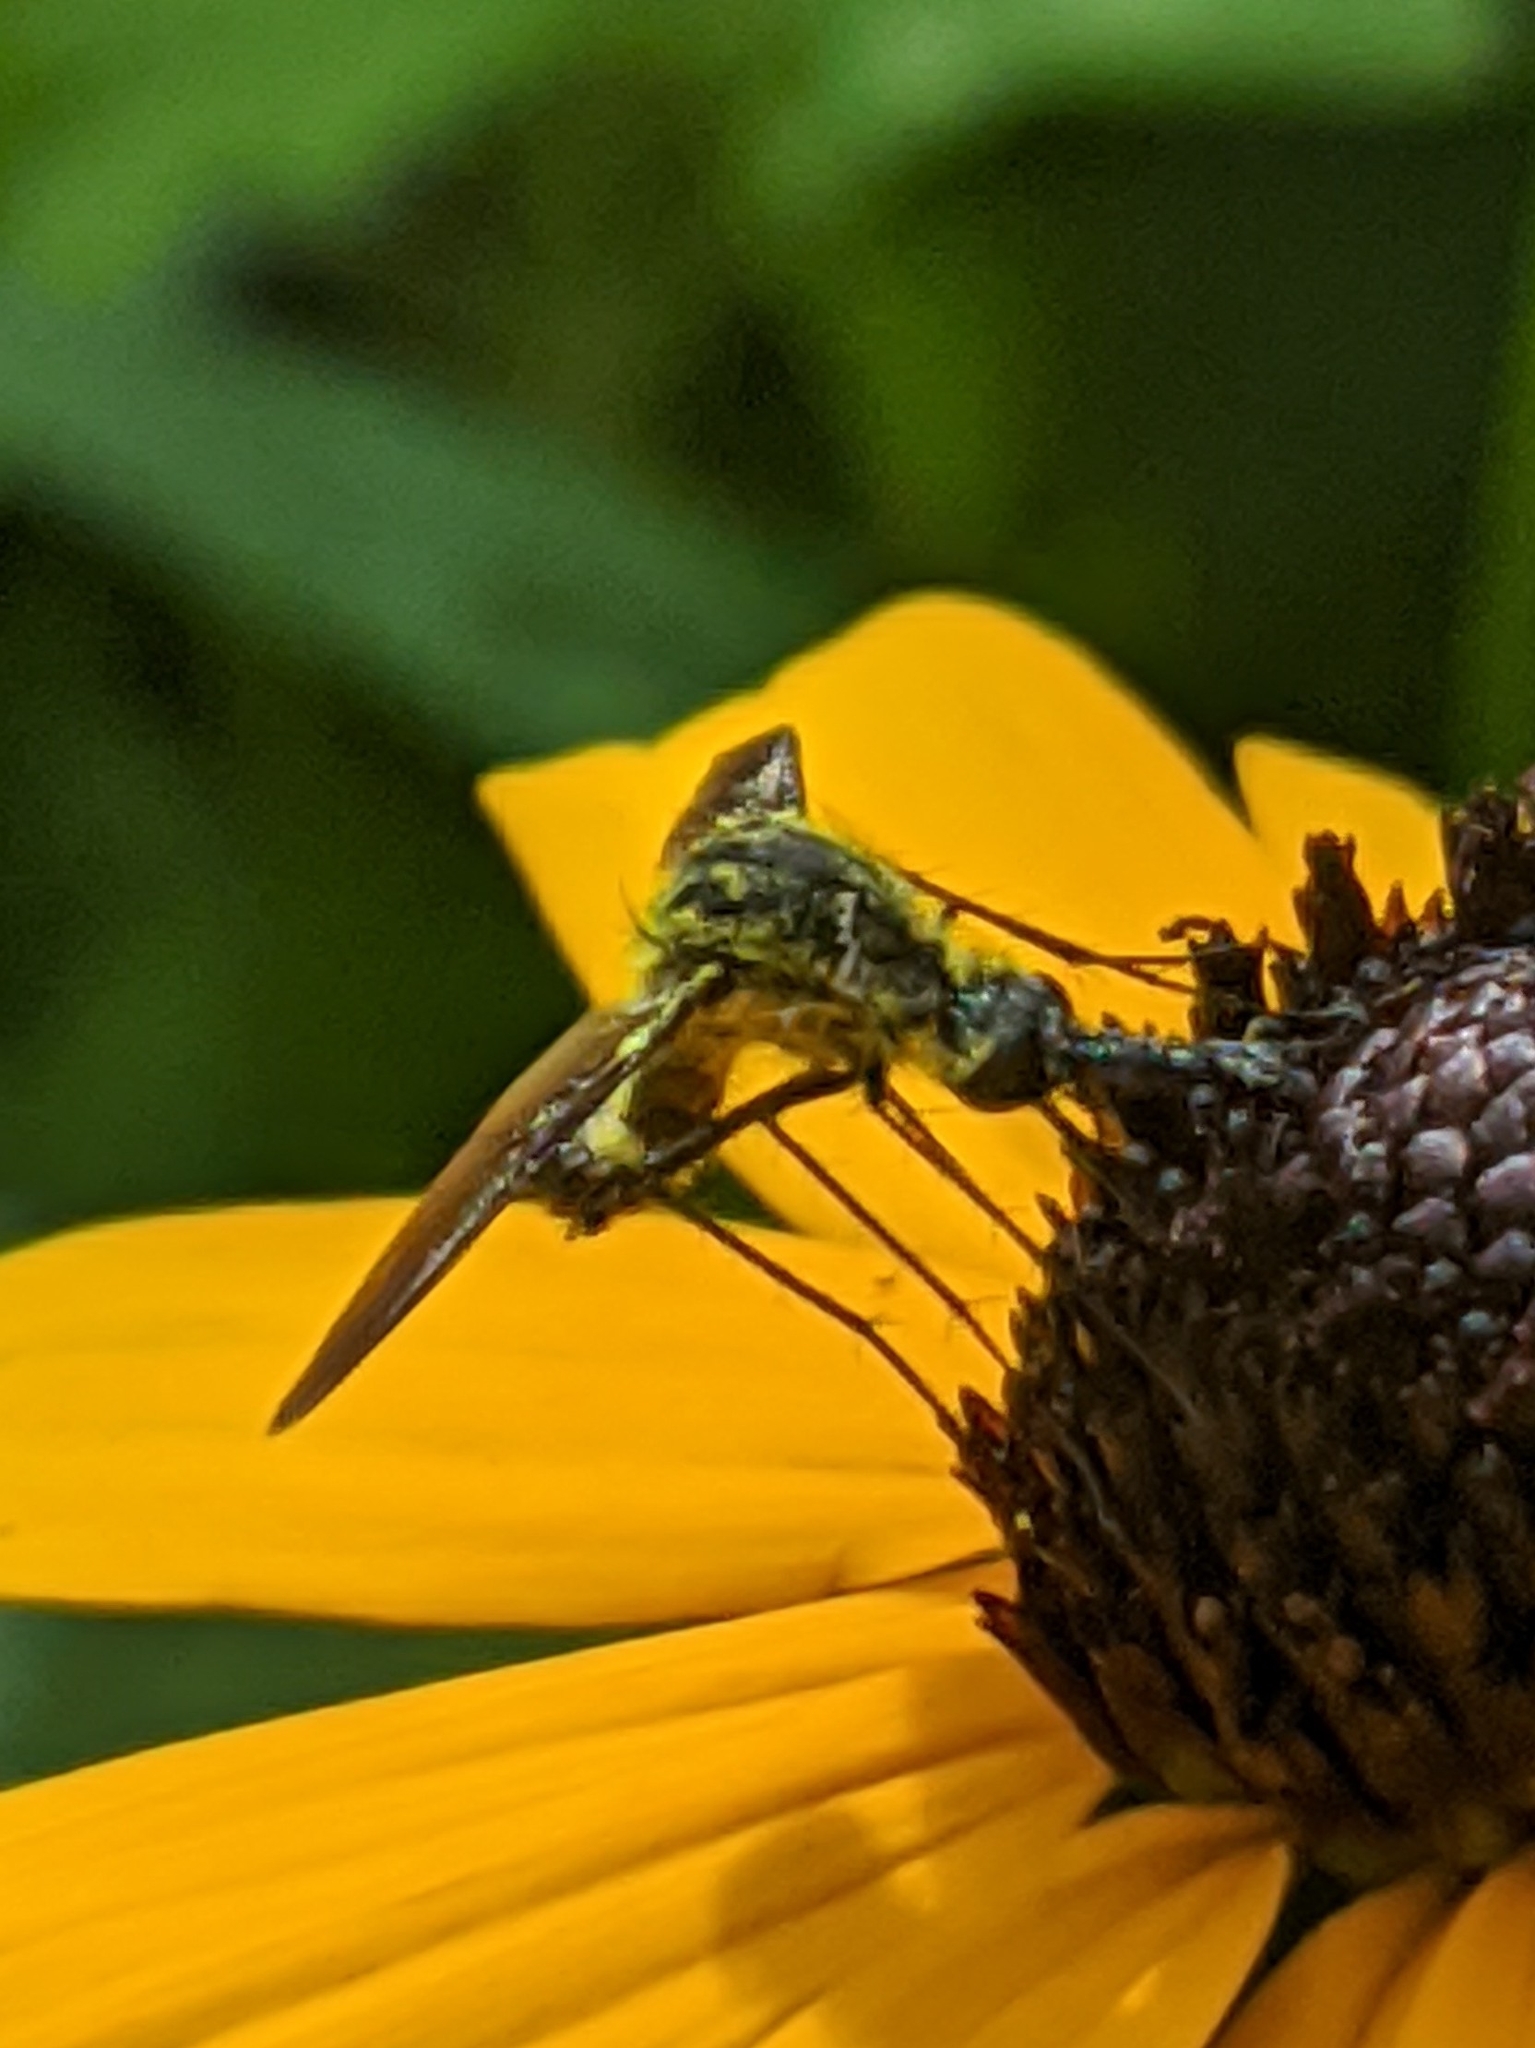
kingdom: Animalia
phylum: Arthropoda
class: Insecta
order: Diptera
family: Bombyliidae
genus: Lepidophora
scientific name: Lepidophora lutea
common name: Hunchback bee fly
